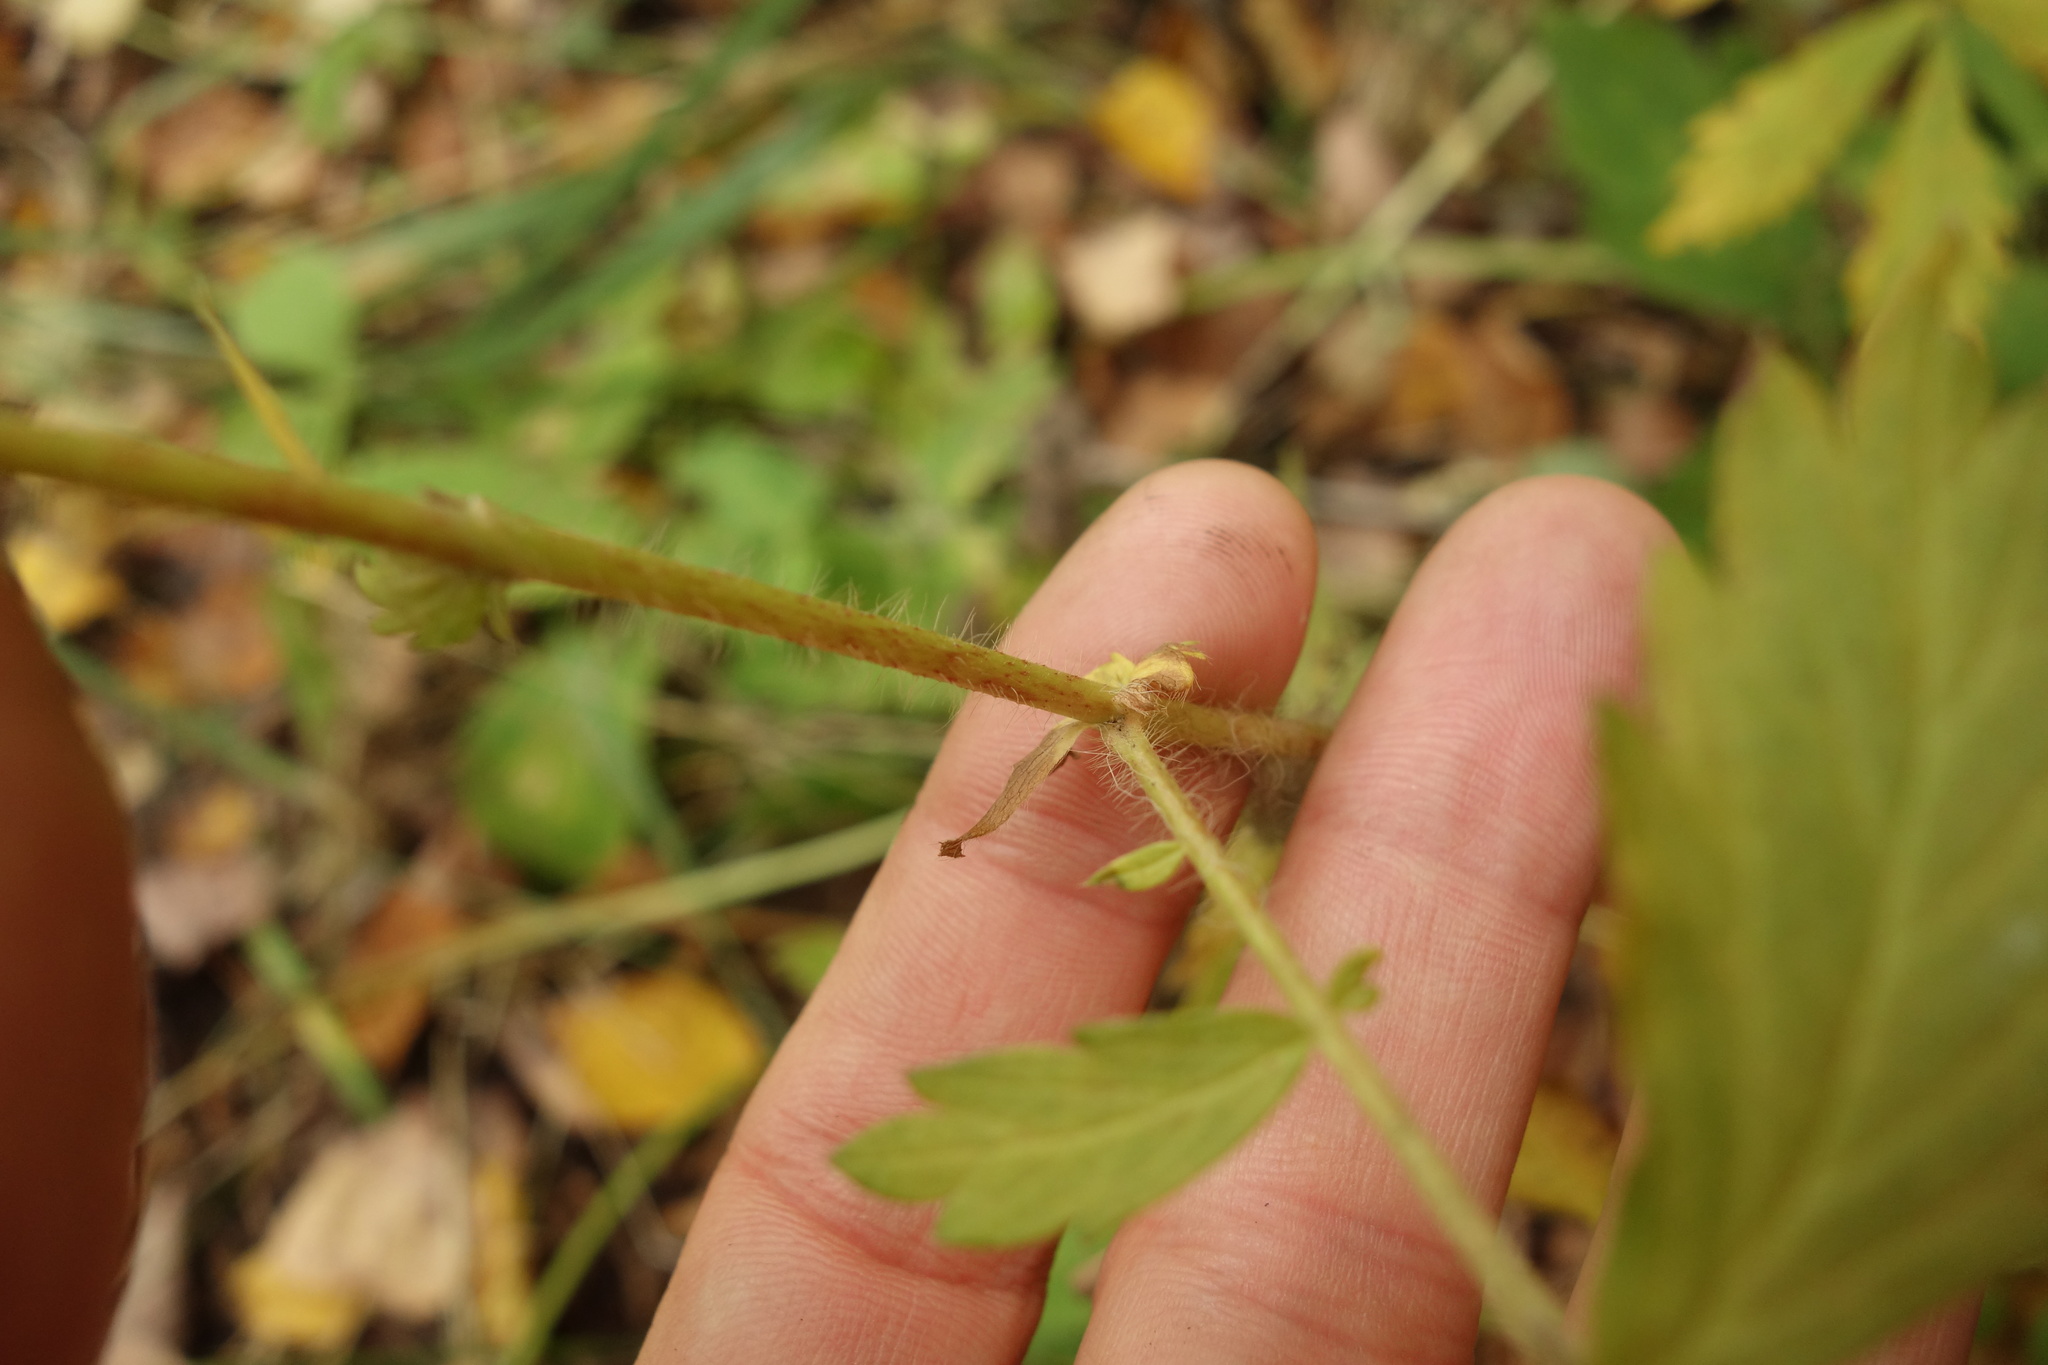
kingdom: Plantae
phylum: Tracheophyta
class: Magnoliopsida
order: Rosales
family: Rosaceae
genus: Agrimonia
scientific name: Agrimonia pilosa
